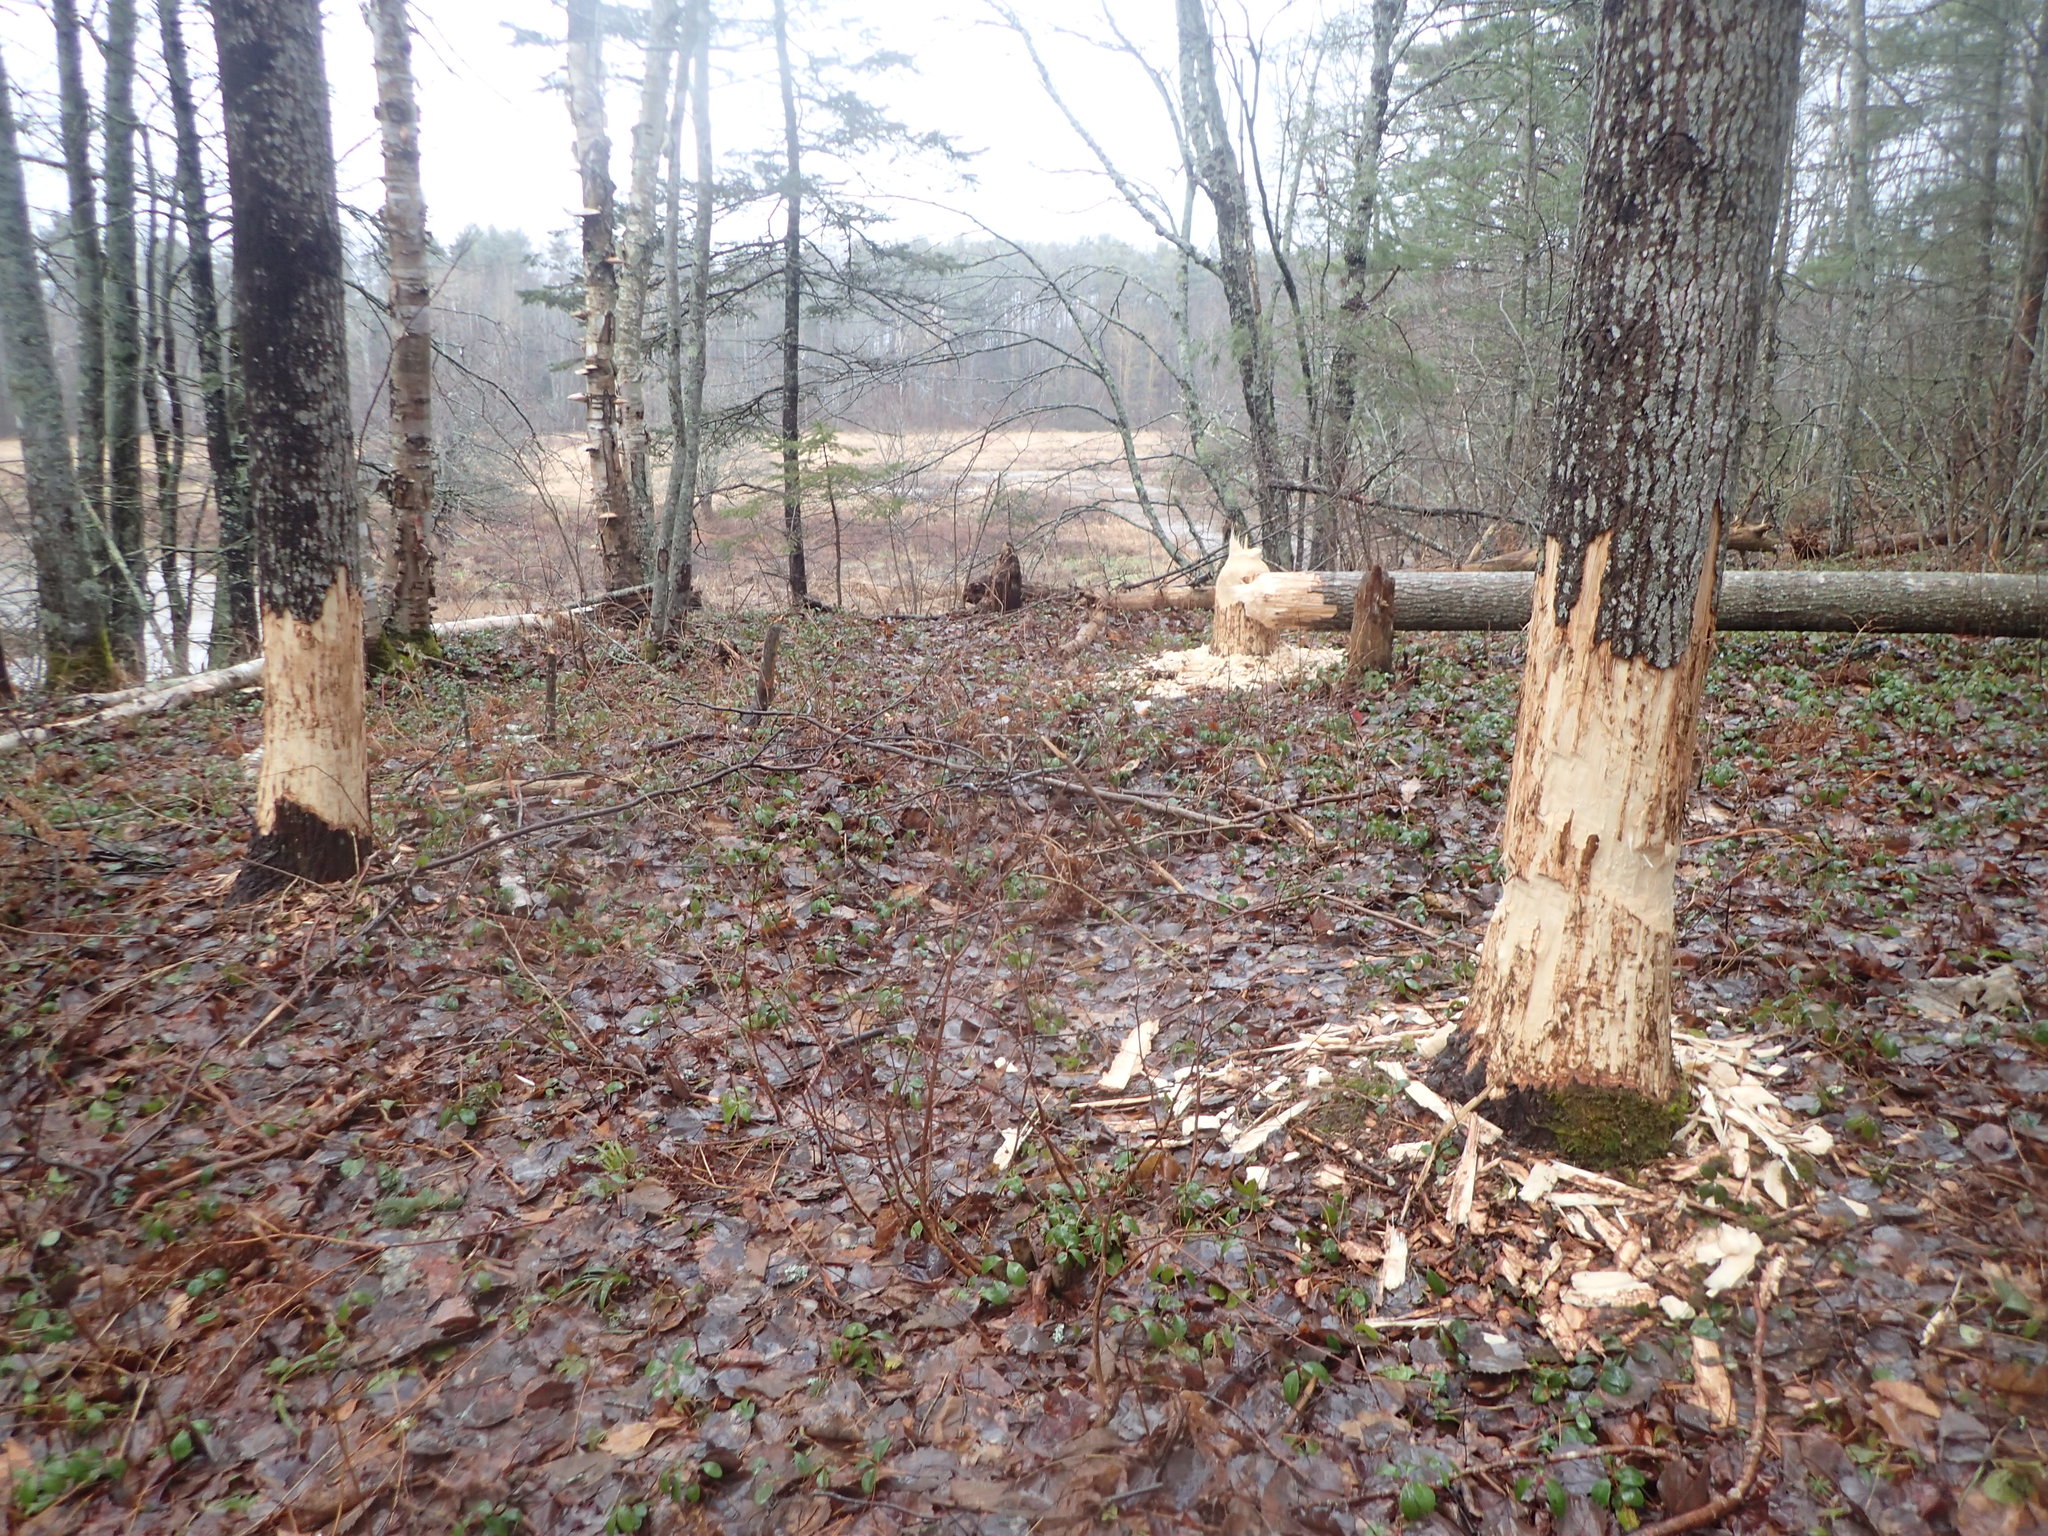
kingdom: Animalia
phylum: Chordata
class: Mammalia
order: Rodentia
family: Castoridae
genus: Castor
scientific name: Castor canadensis
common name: American beaver
